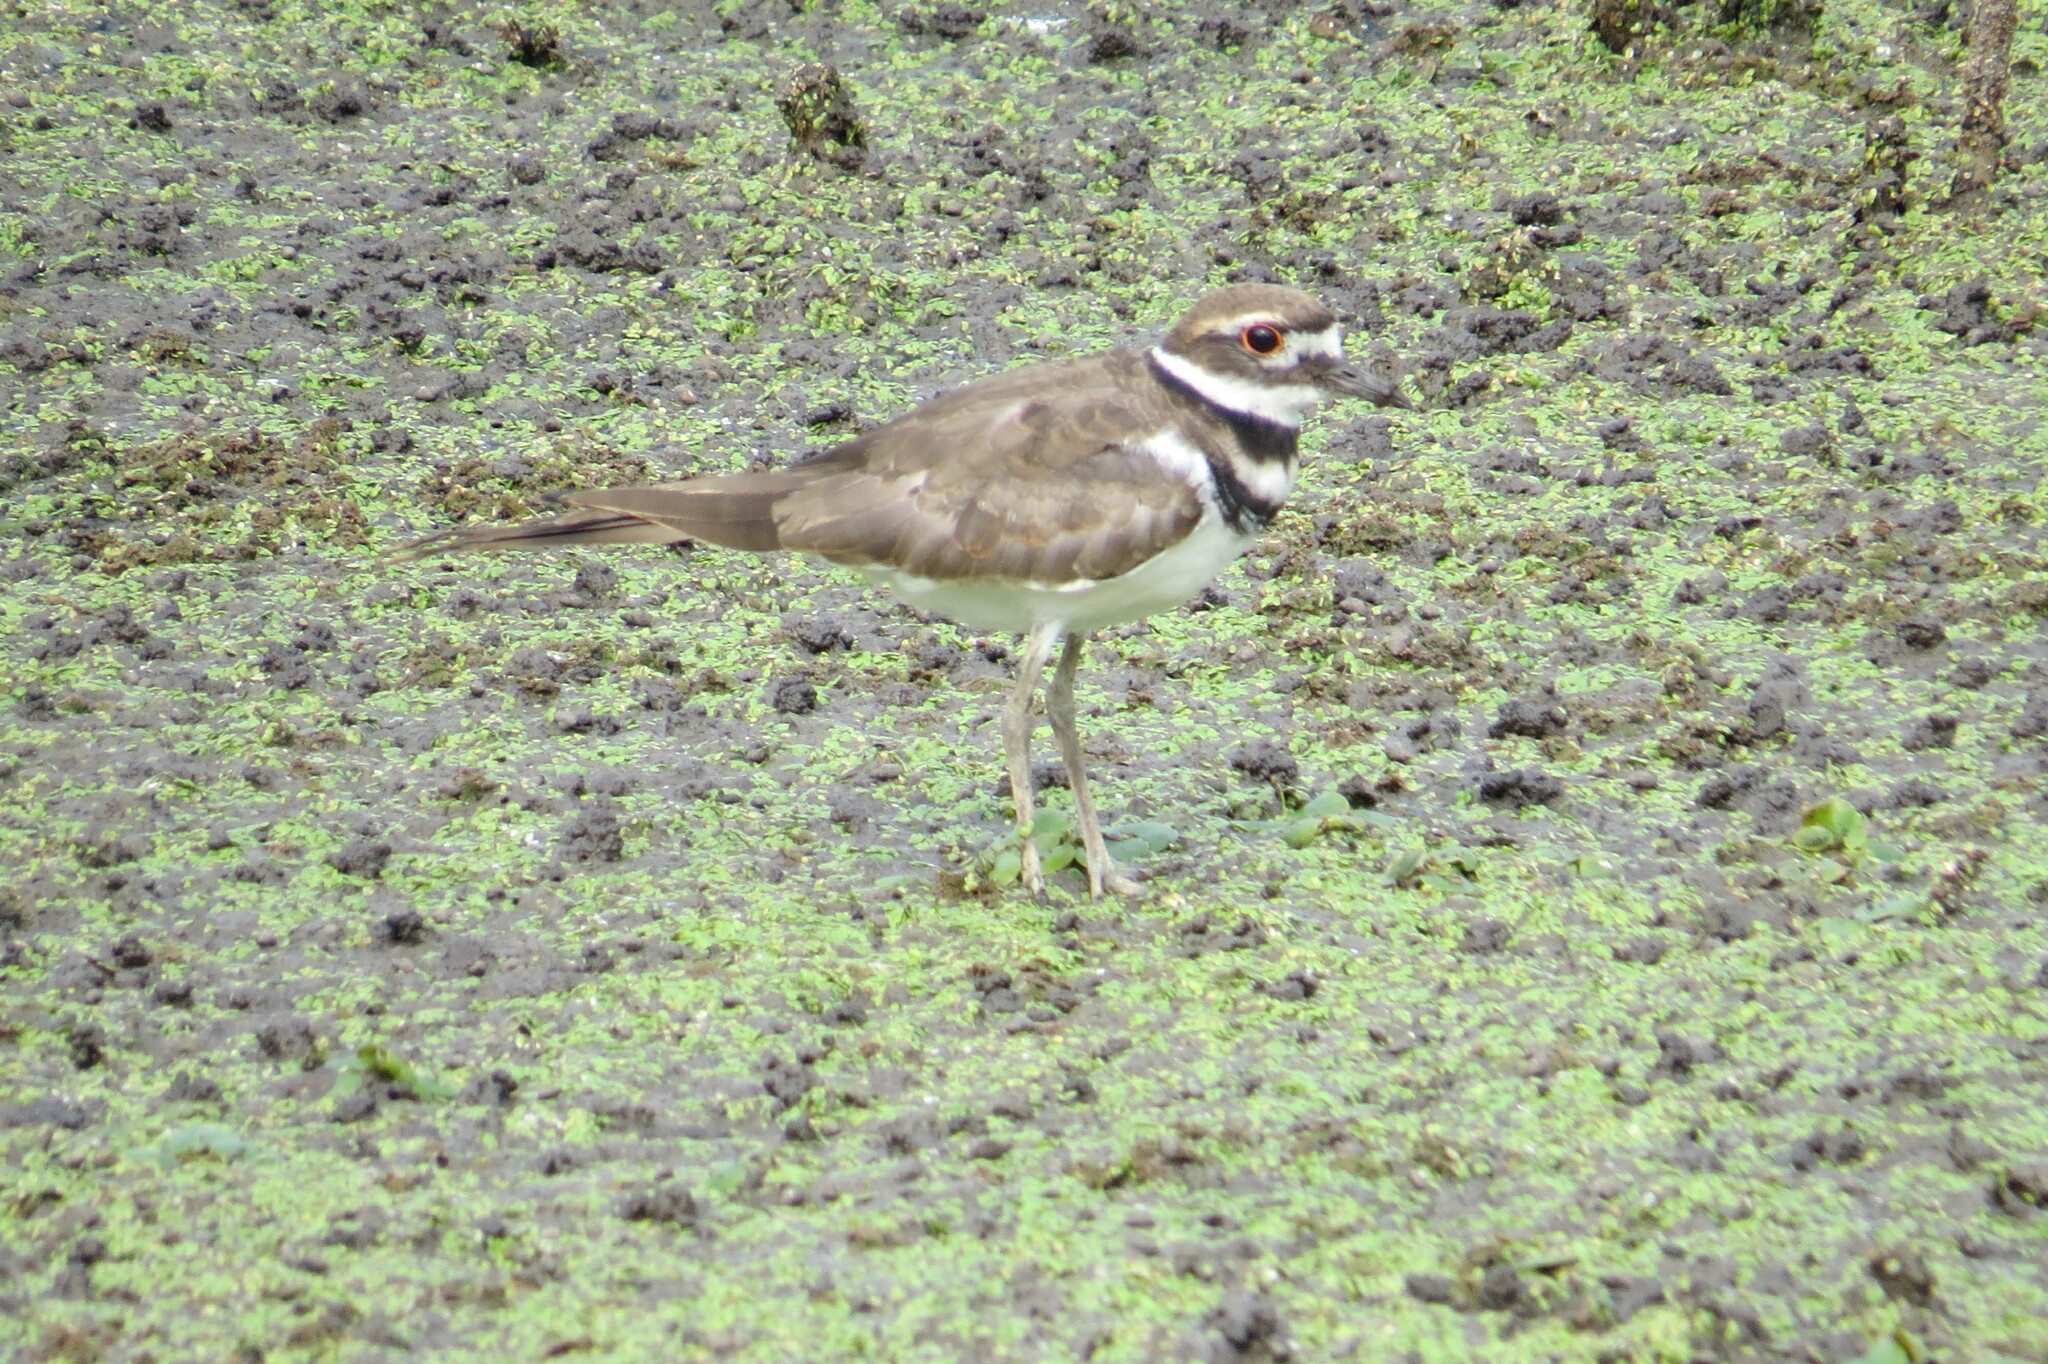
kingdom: Animalia
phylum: Chordata
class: Aves
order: Charadriiformes
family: Charadriidae
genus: Charadrius
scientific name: Charadrius vociferus
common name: Killdeer
